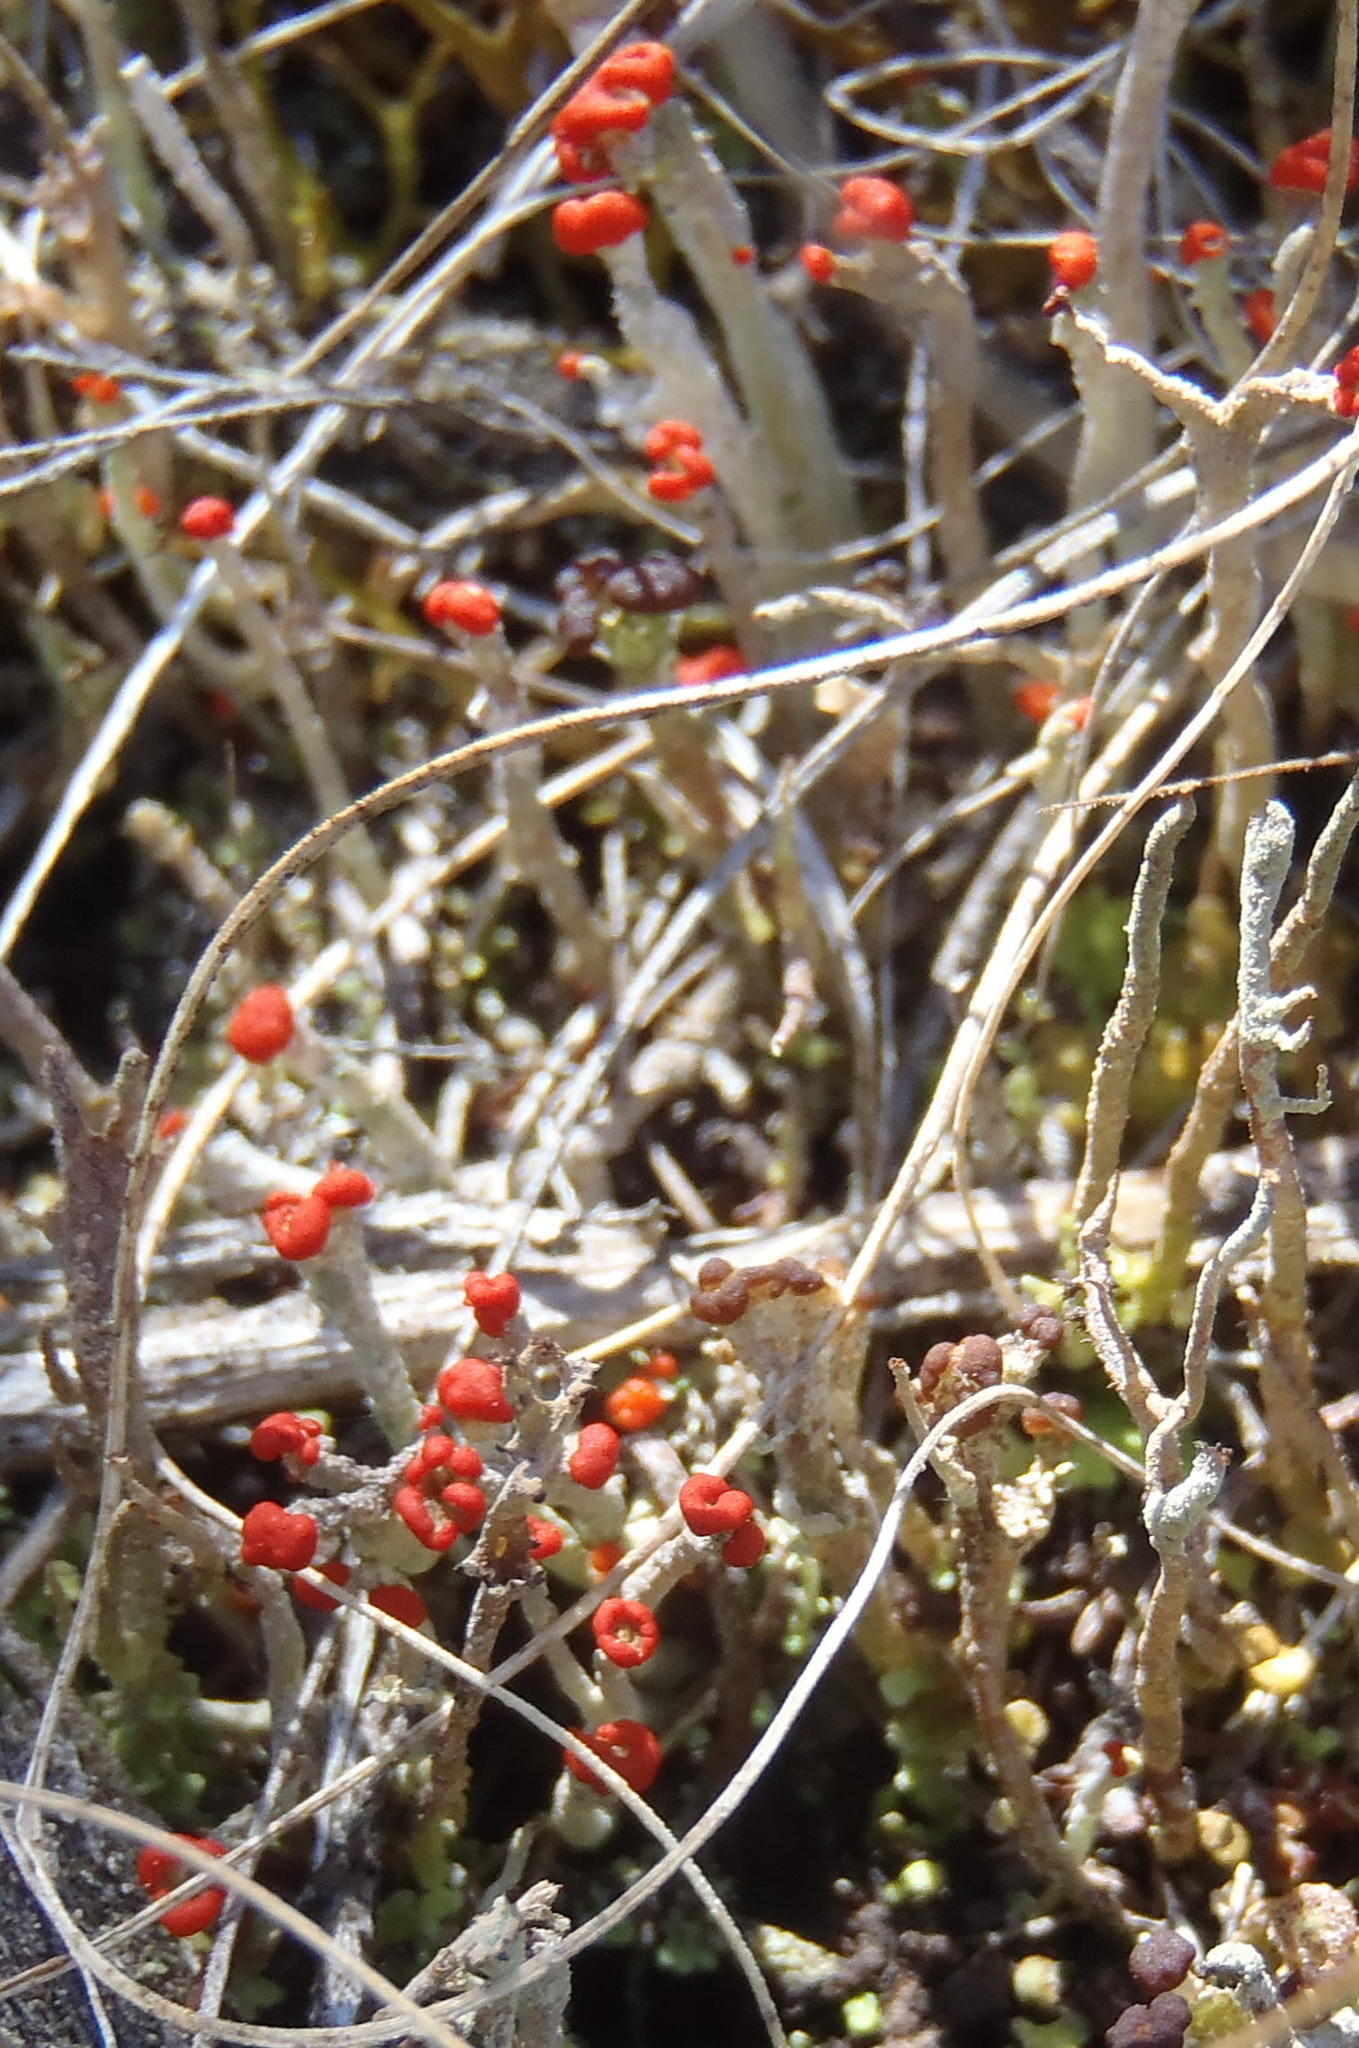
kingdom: Fungi
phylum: Ascomycota
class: Lecanoromycetes
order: Lecanorales
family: Cladoniaceae
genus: Cladonia
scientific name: Cladonia floerkeana
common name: Gritty british soldiers lichen
